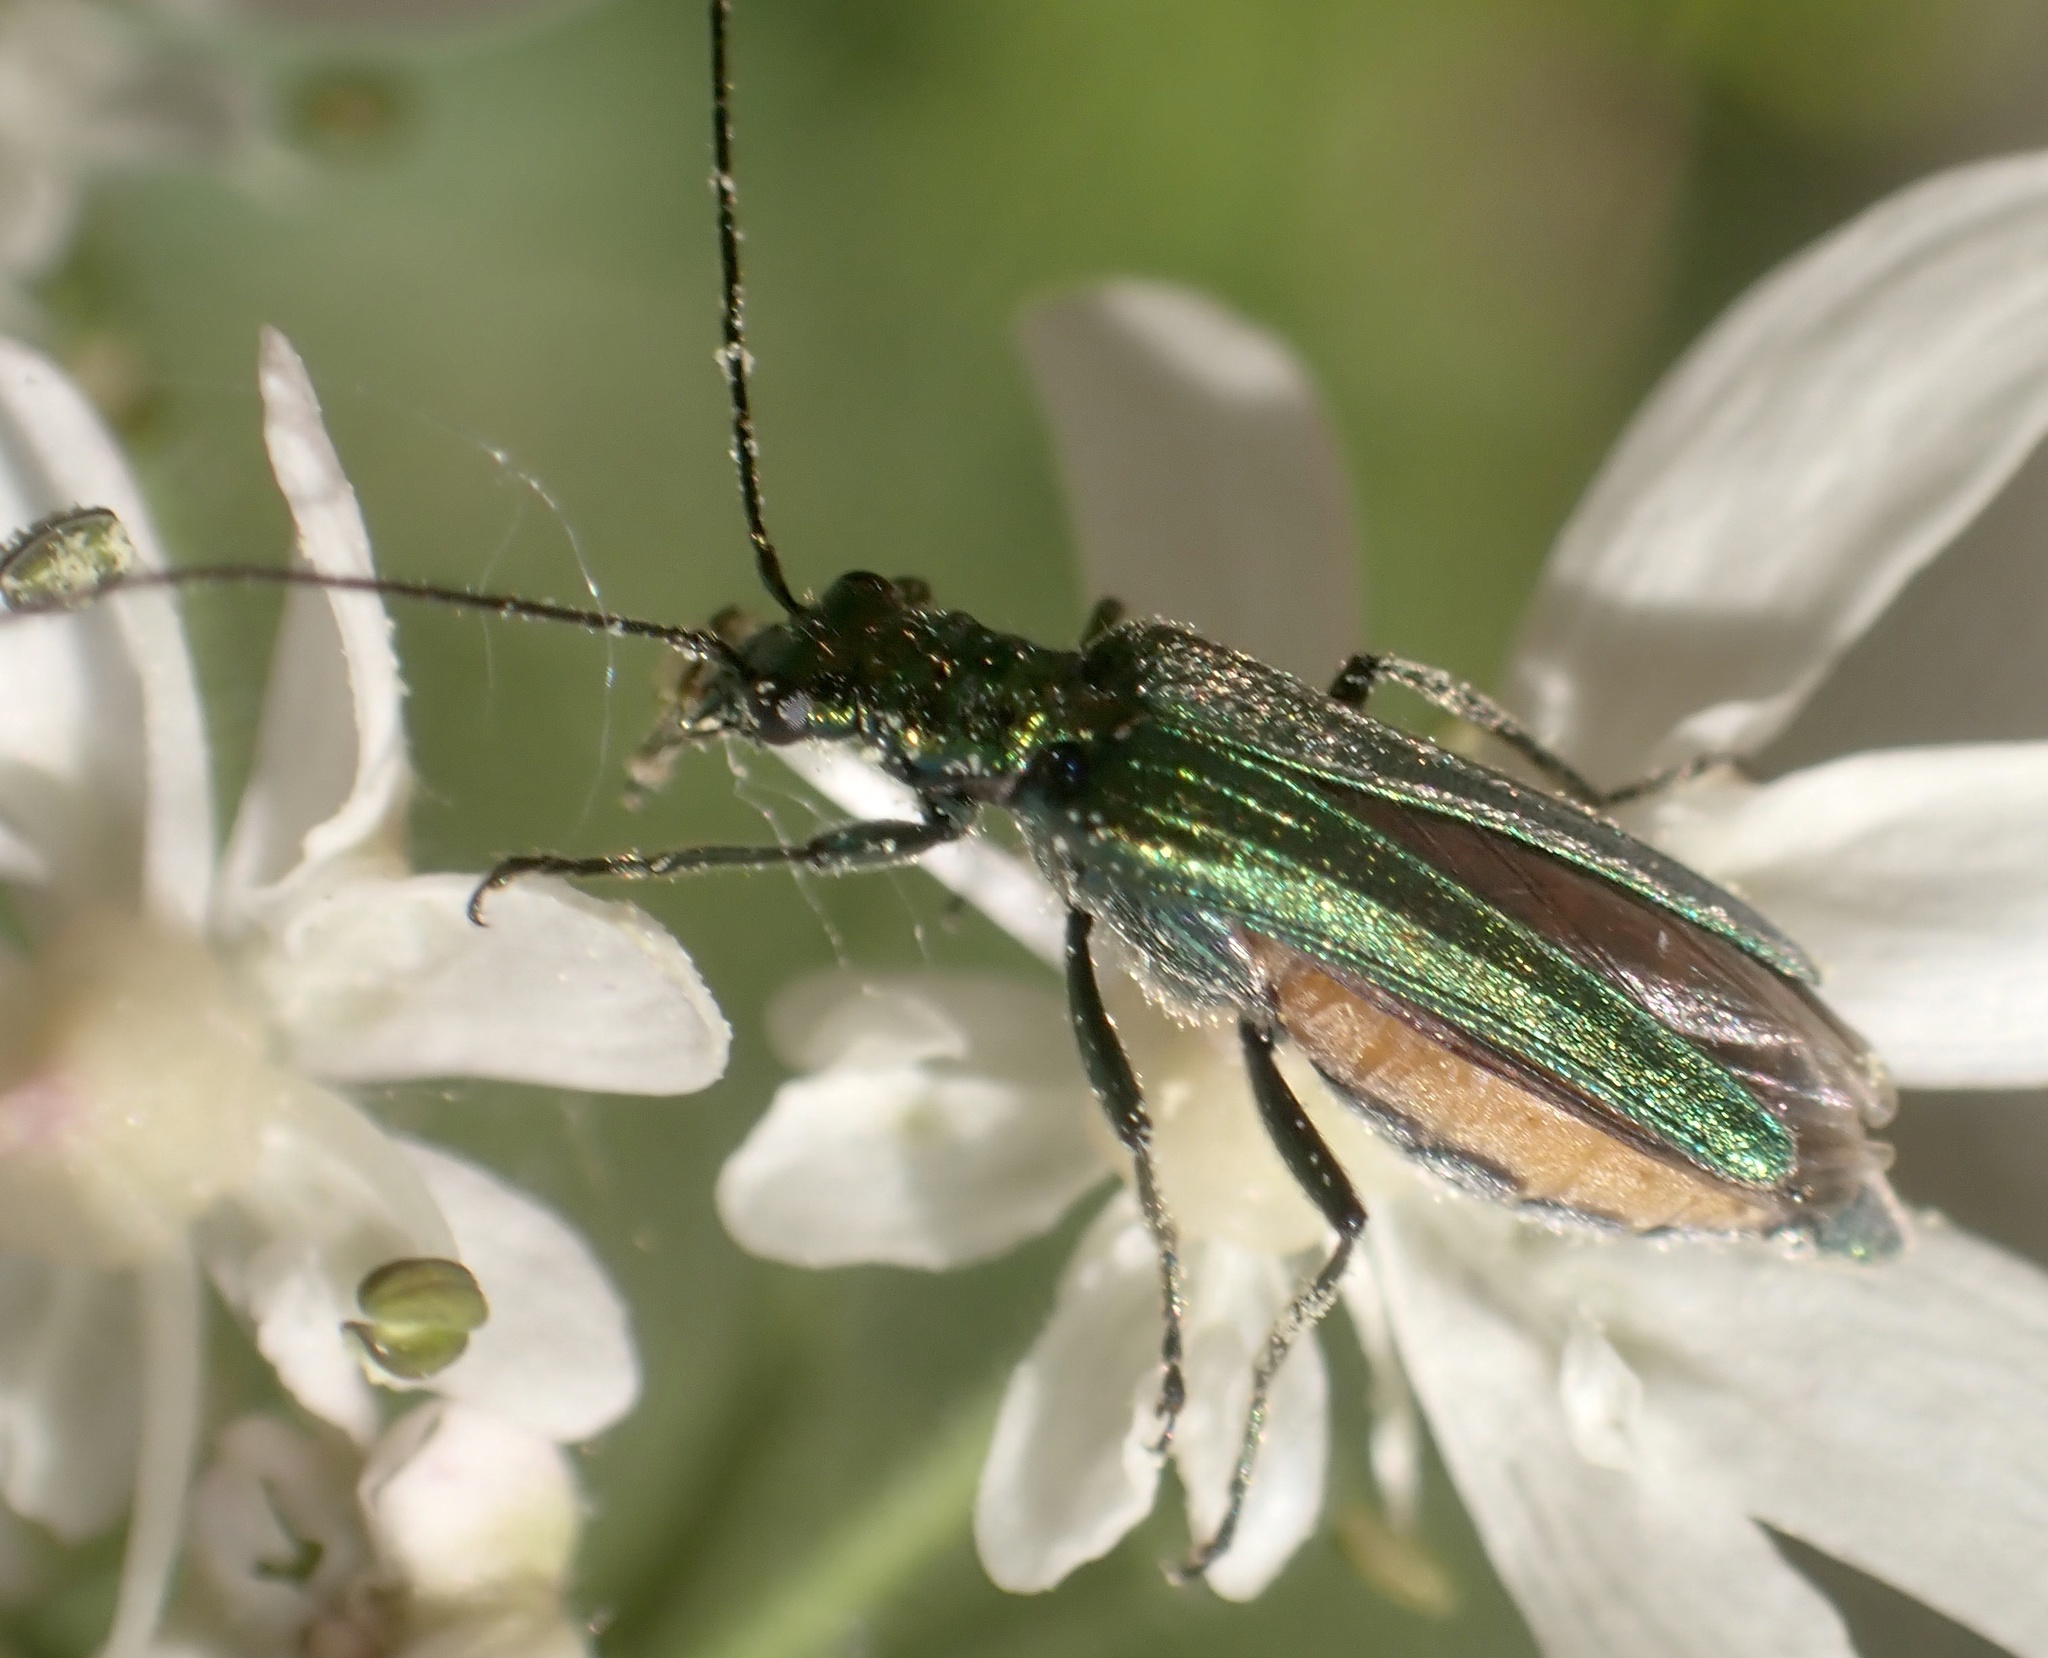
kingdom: Animalia
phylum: Arthropoda
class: Insecta
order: Coleoptera
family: Oedemeridae
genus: Oedemera
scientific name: Oedemera nobilis
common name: Swollen-thighed beetle
